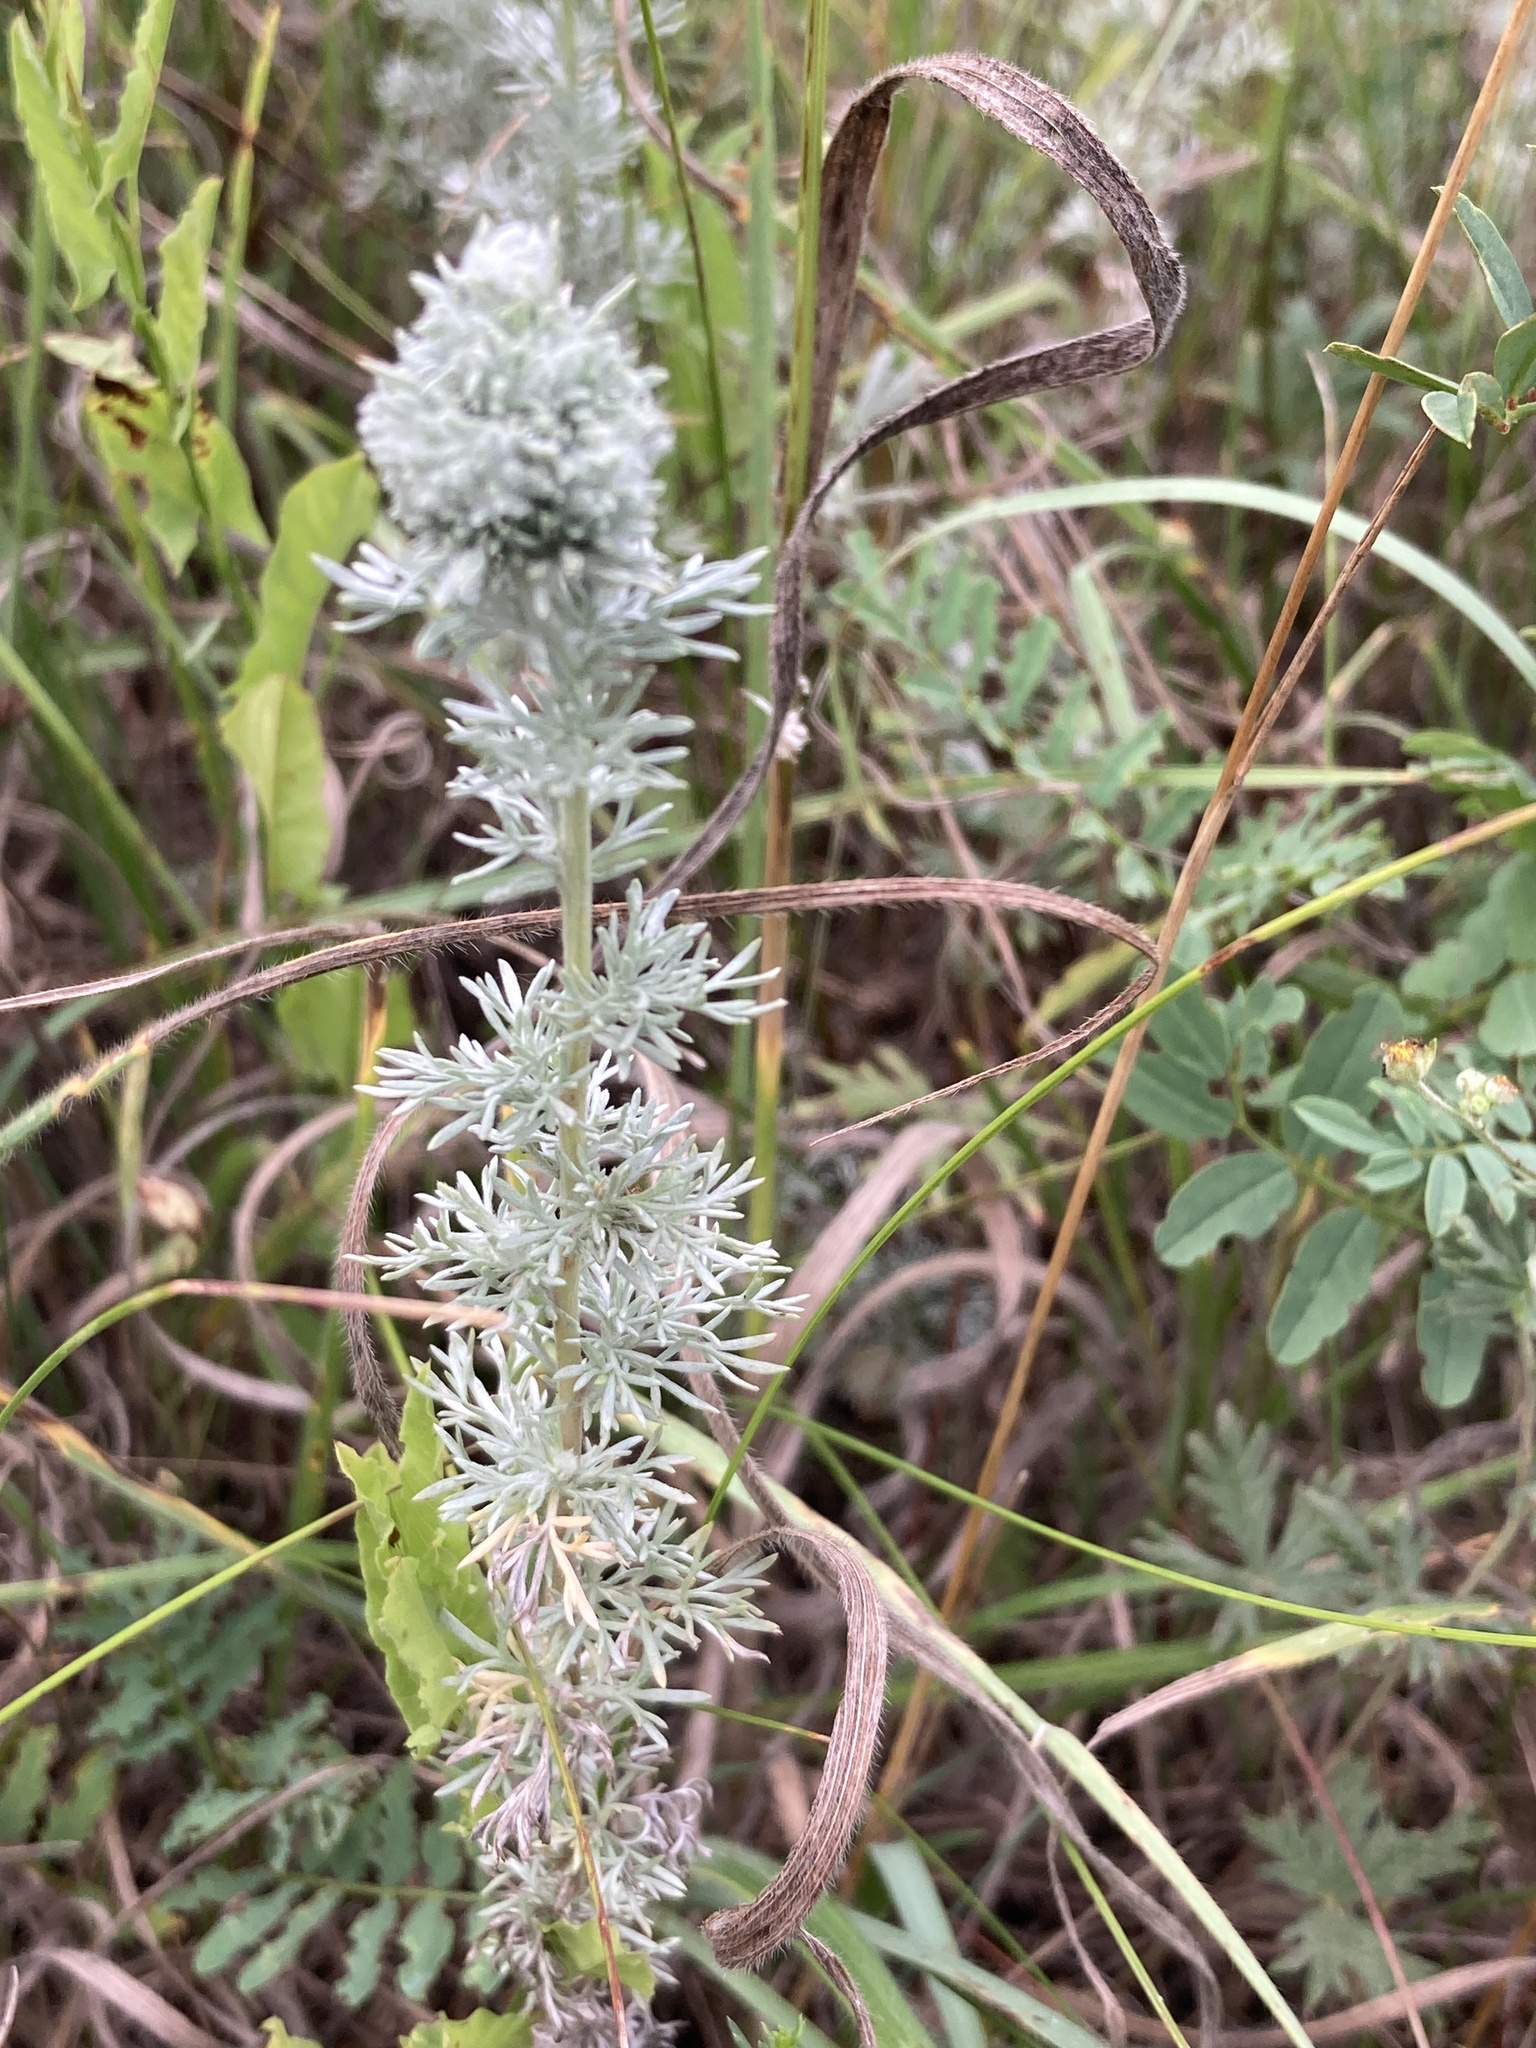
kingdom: Plantae
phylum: Tracheophyta
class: Magnoliopsida
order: Asterales
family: Asteraceae
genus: Artemisia
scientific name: Artemisia austriaca
